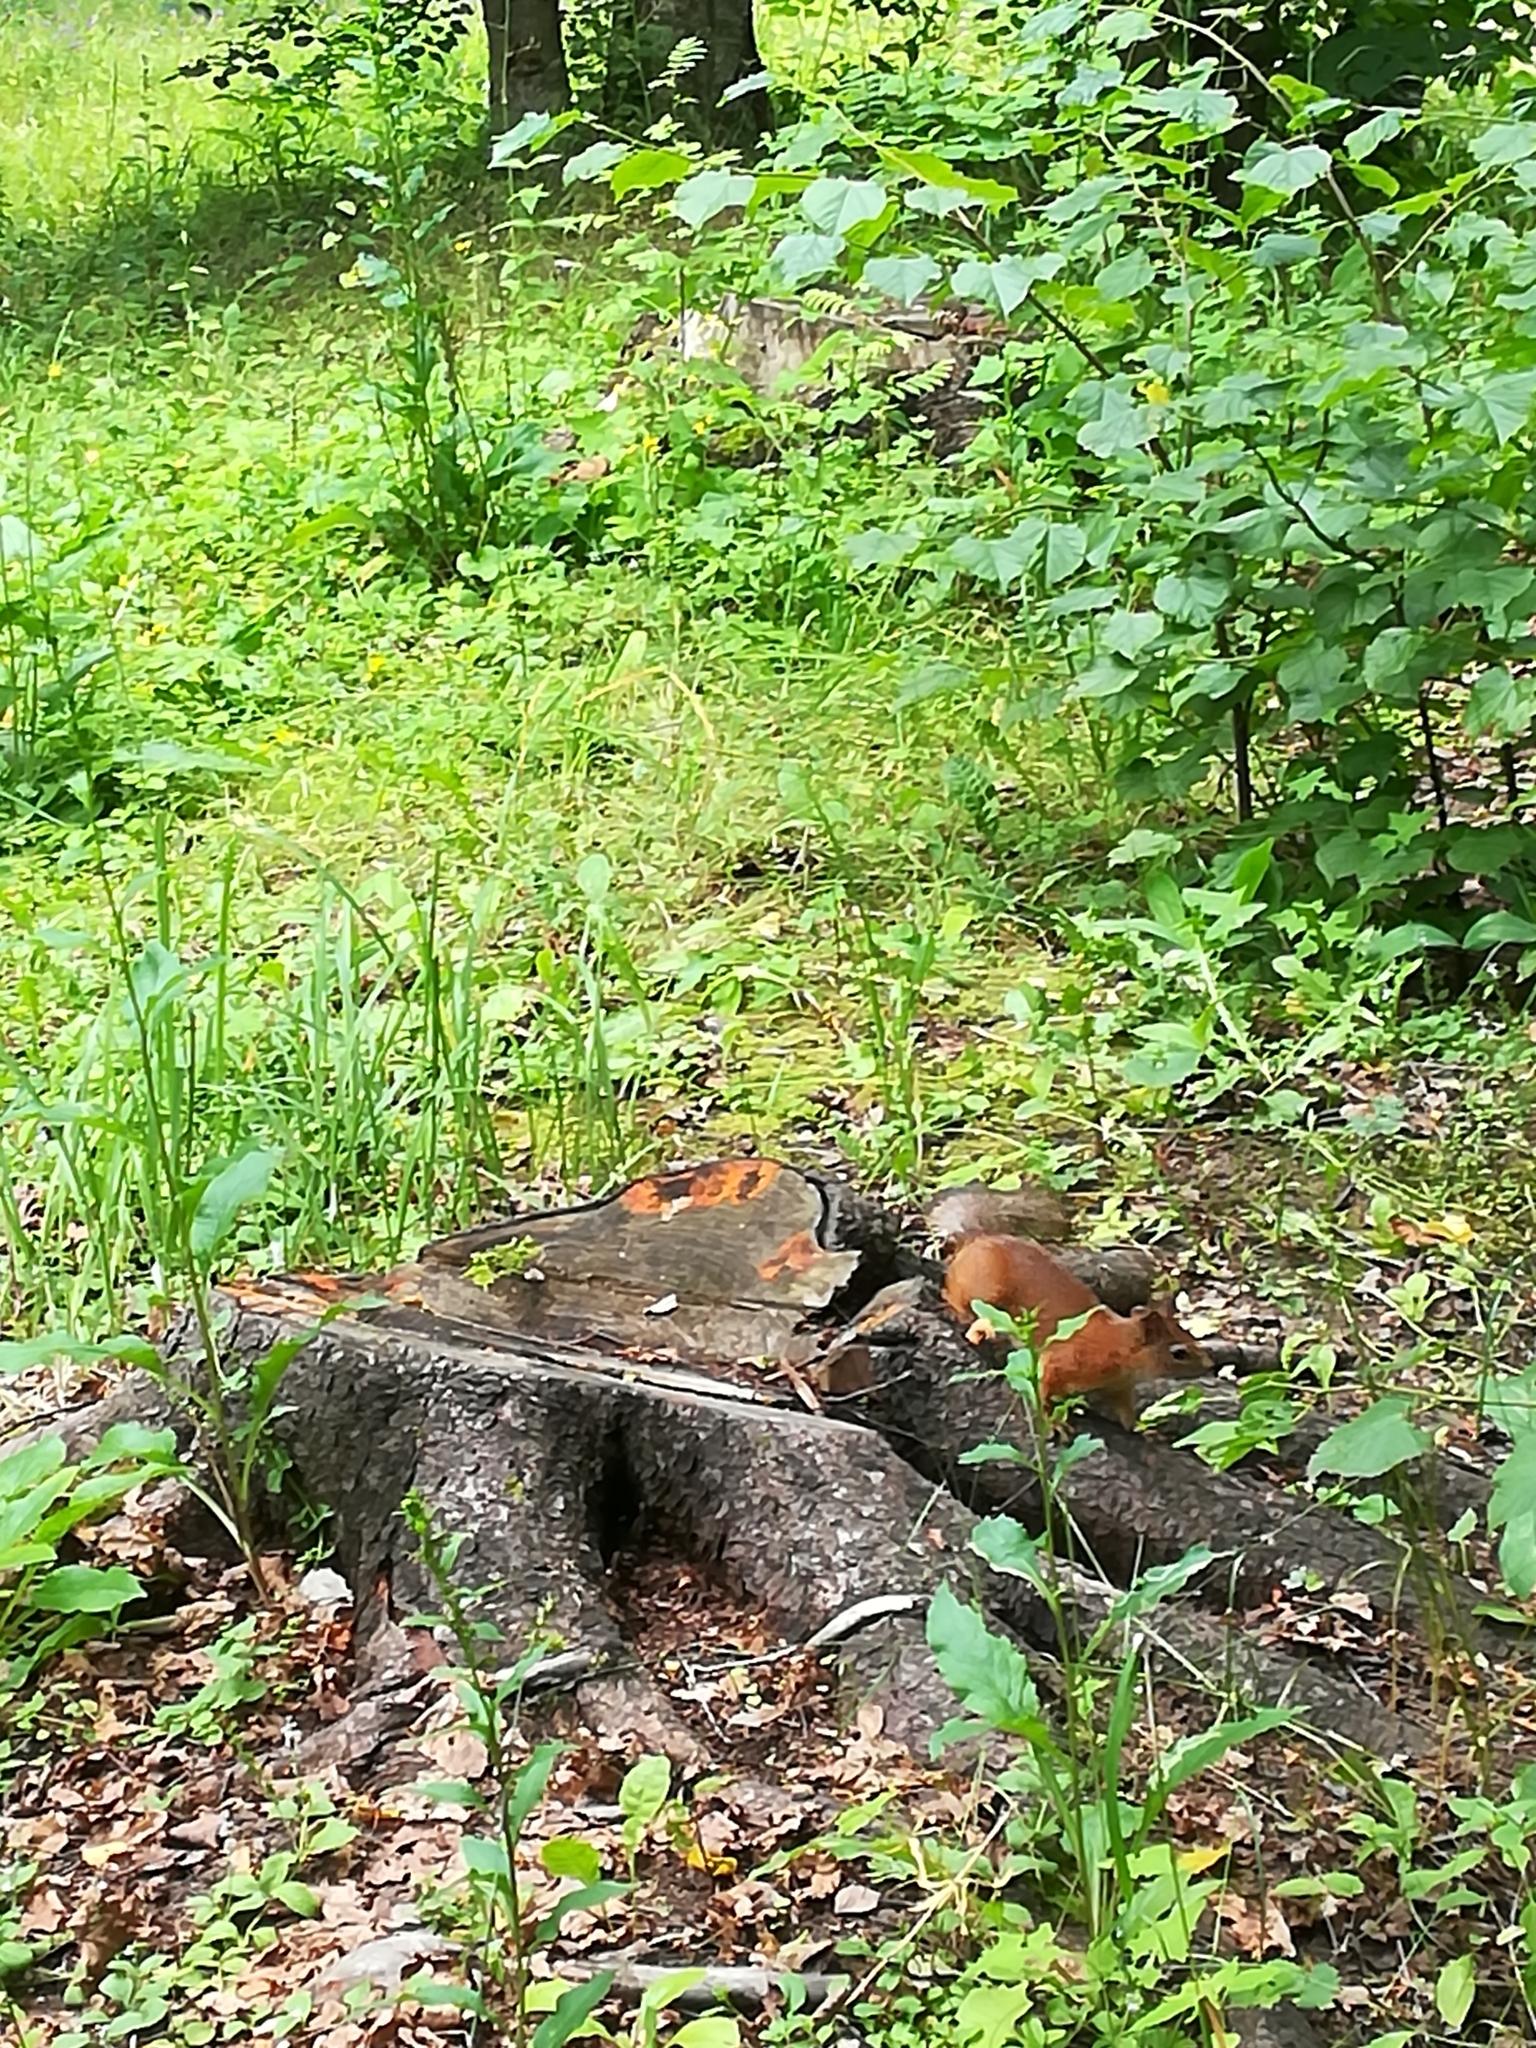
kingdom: Animalia
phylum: Chordata
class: Mammalia
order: Rodentia
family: Sciuridae
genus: Sciurus
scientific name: Sciurus vulgaris
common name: Eurasian red squirrel
